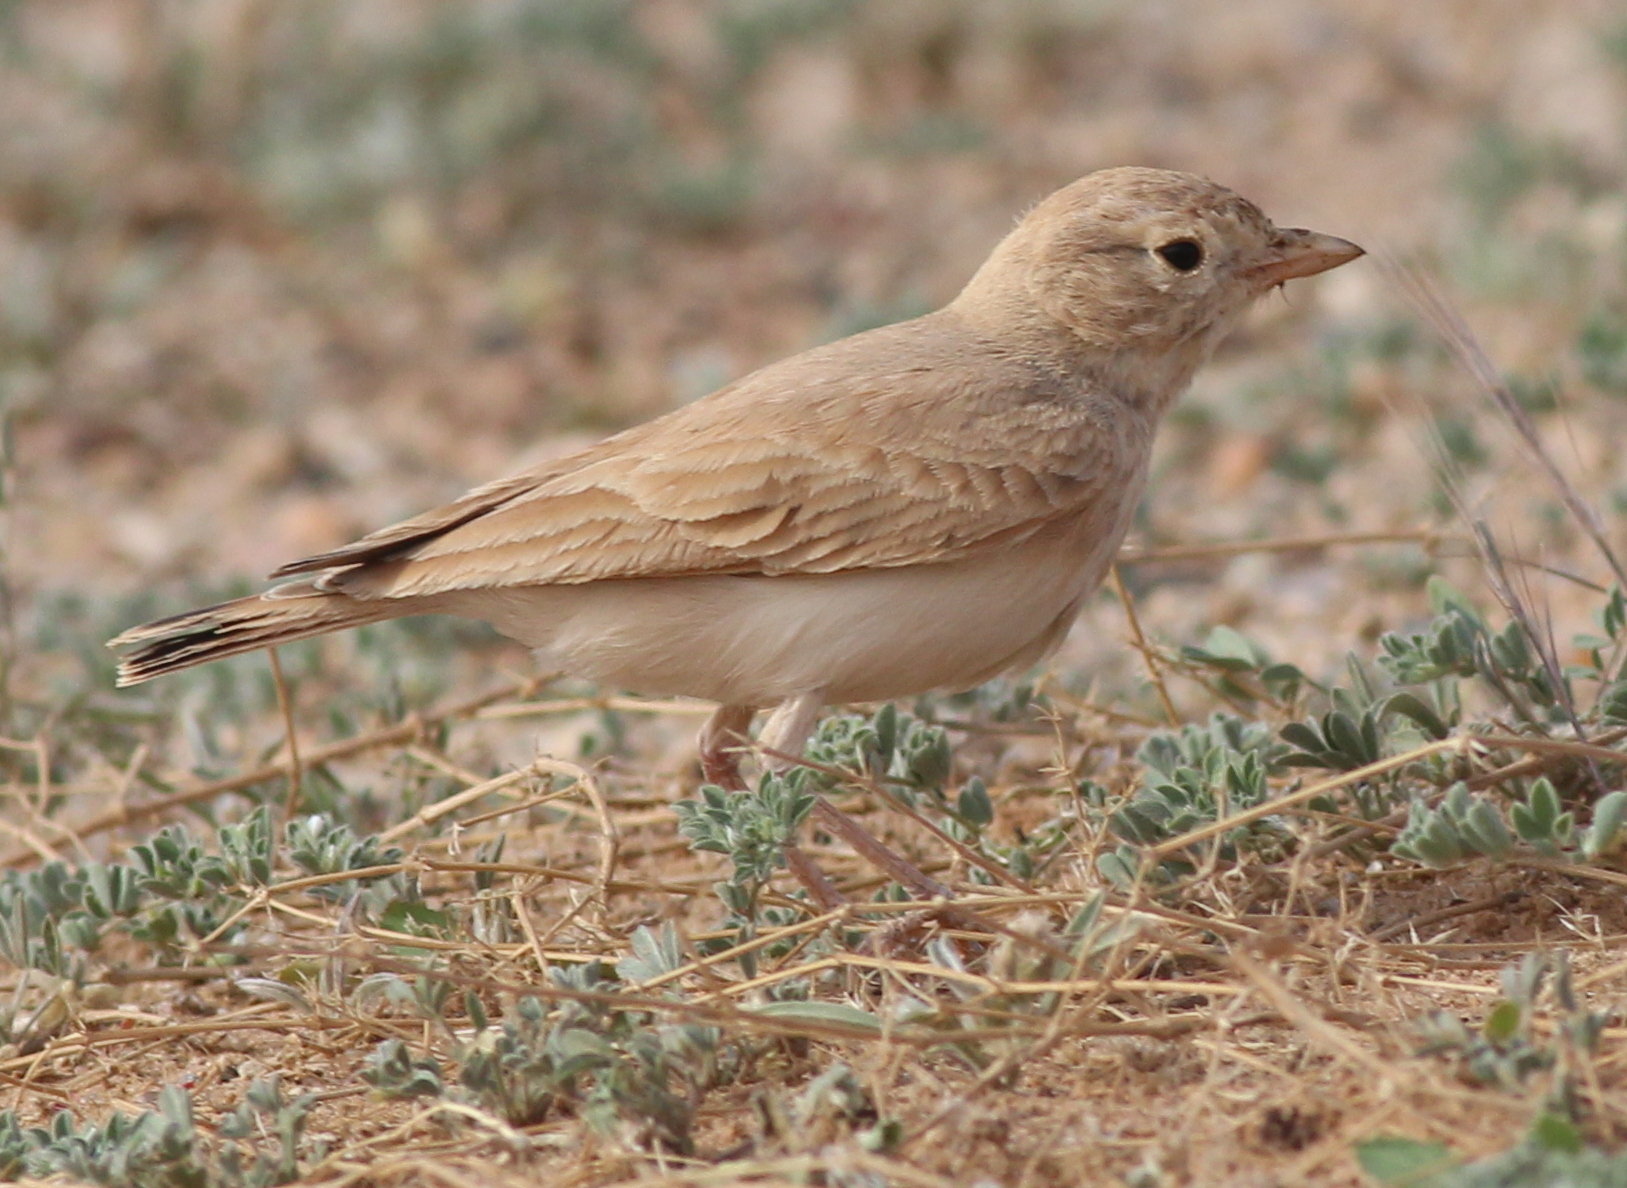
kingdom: Animalia
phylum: Chordata
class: Aves
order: Passeriformes
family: Alaudidae
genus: Ammomanes
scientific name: Ammomanes cinctura
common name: Bar-tailed lark
